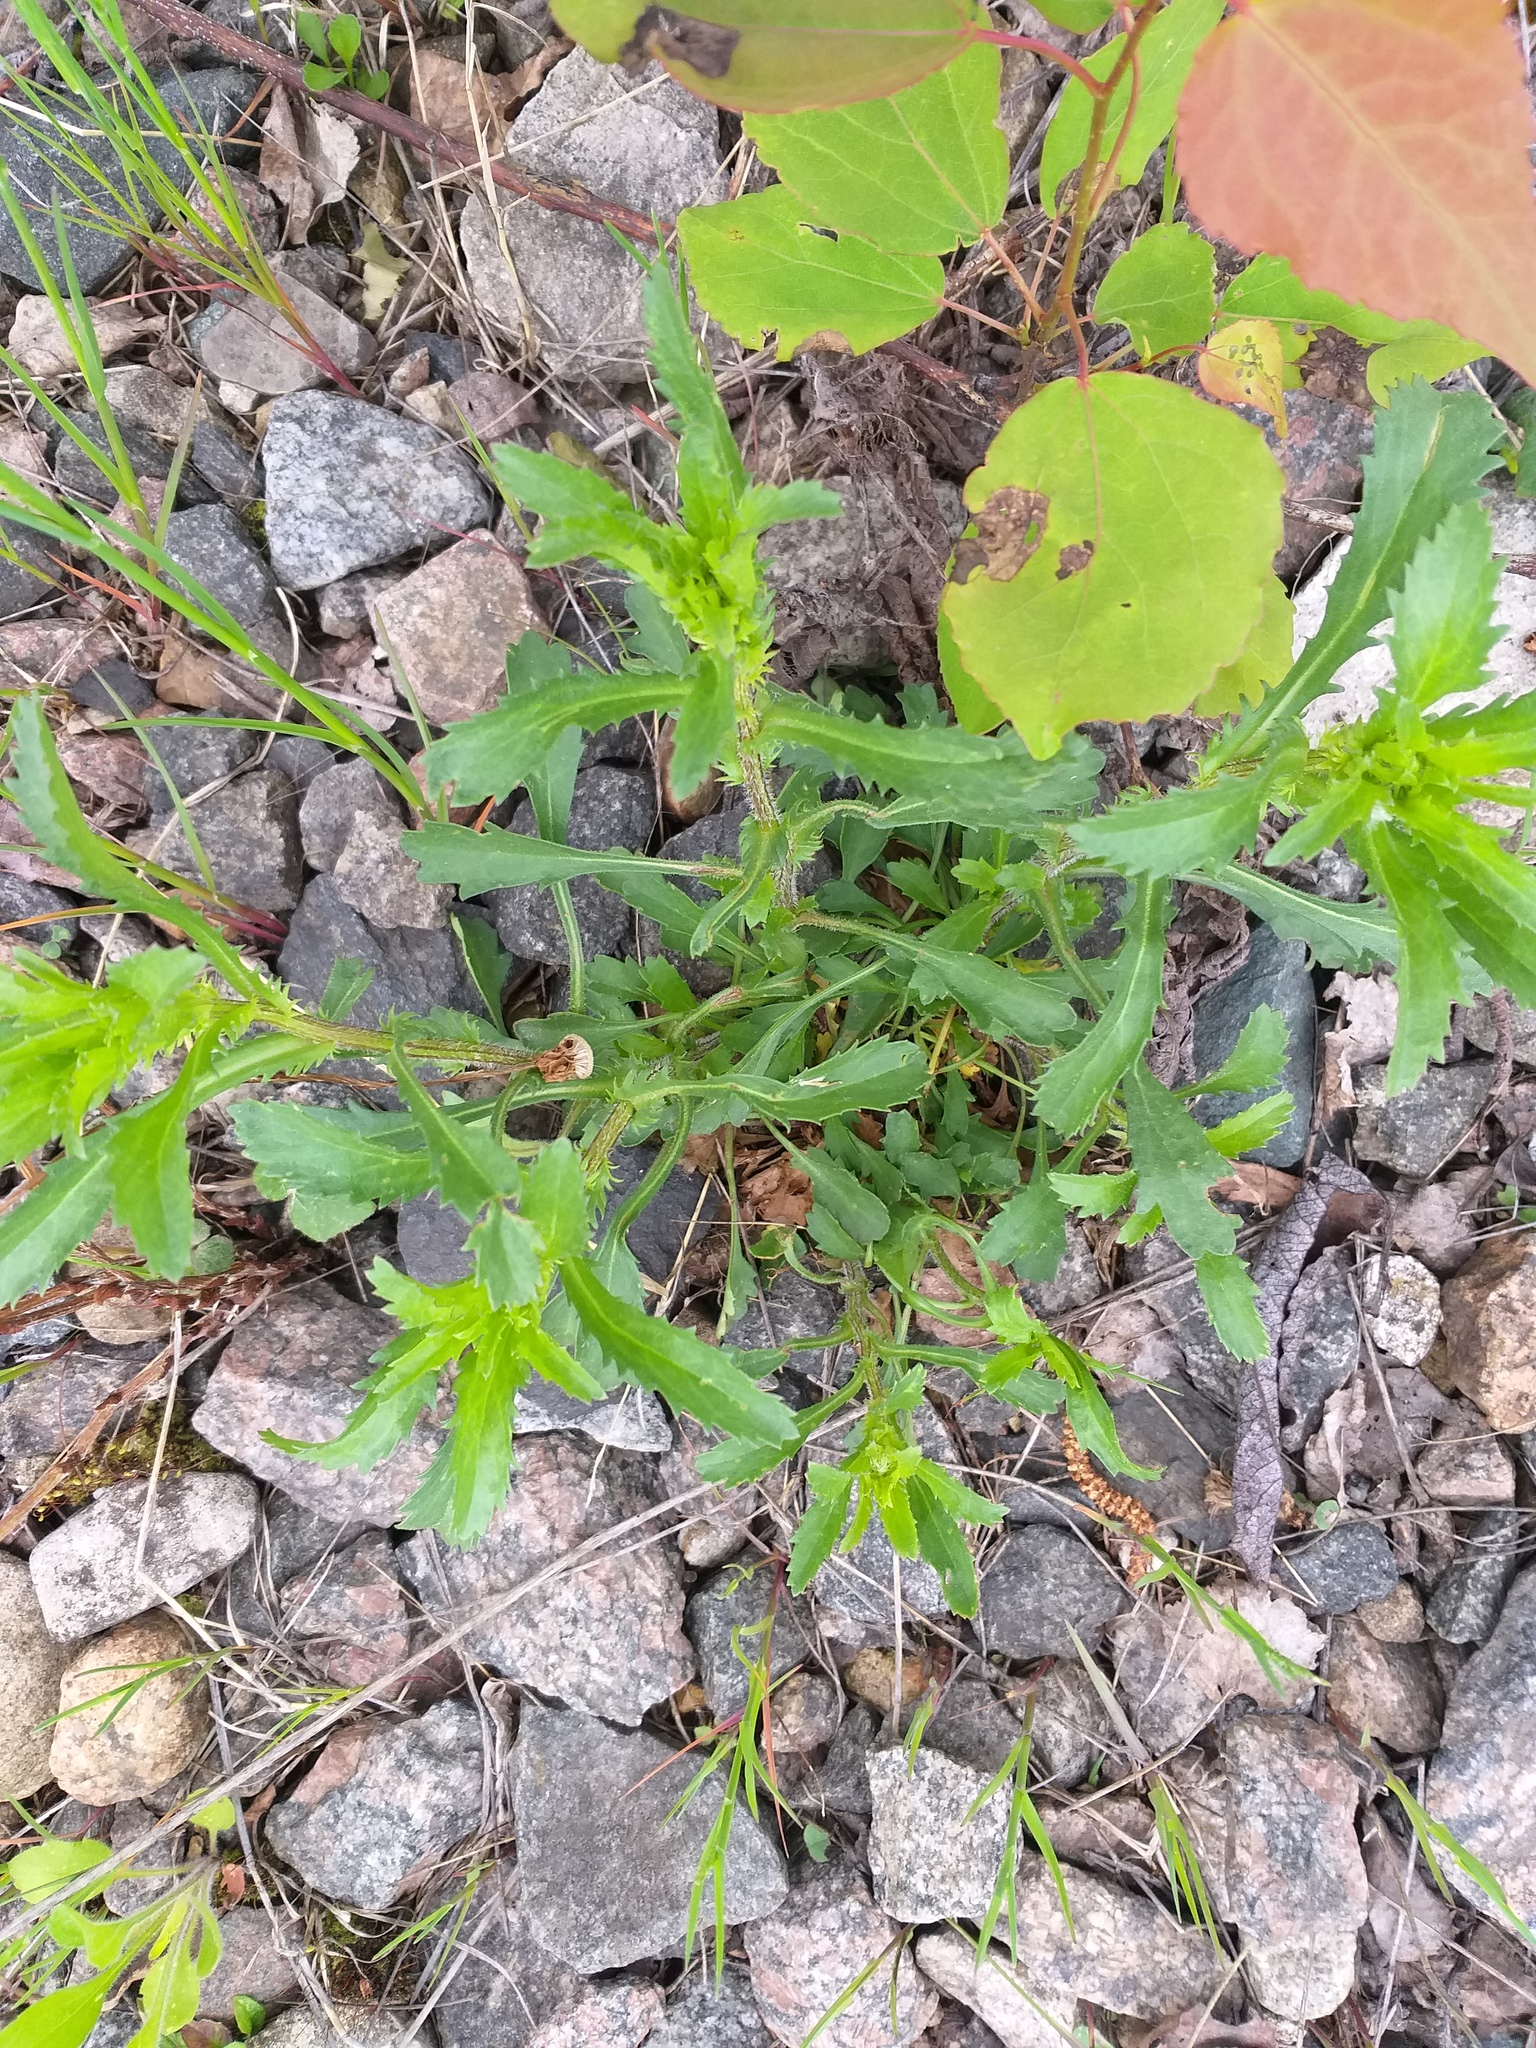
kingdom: Plantae
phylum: Tracheophyta
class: Magnoliopsida
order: Asterales
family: Asteraceae
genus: Leucanthemum
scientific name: Leucanthemum vulgare
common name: Oxeye daisy
